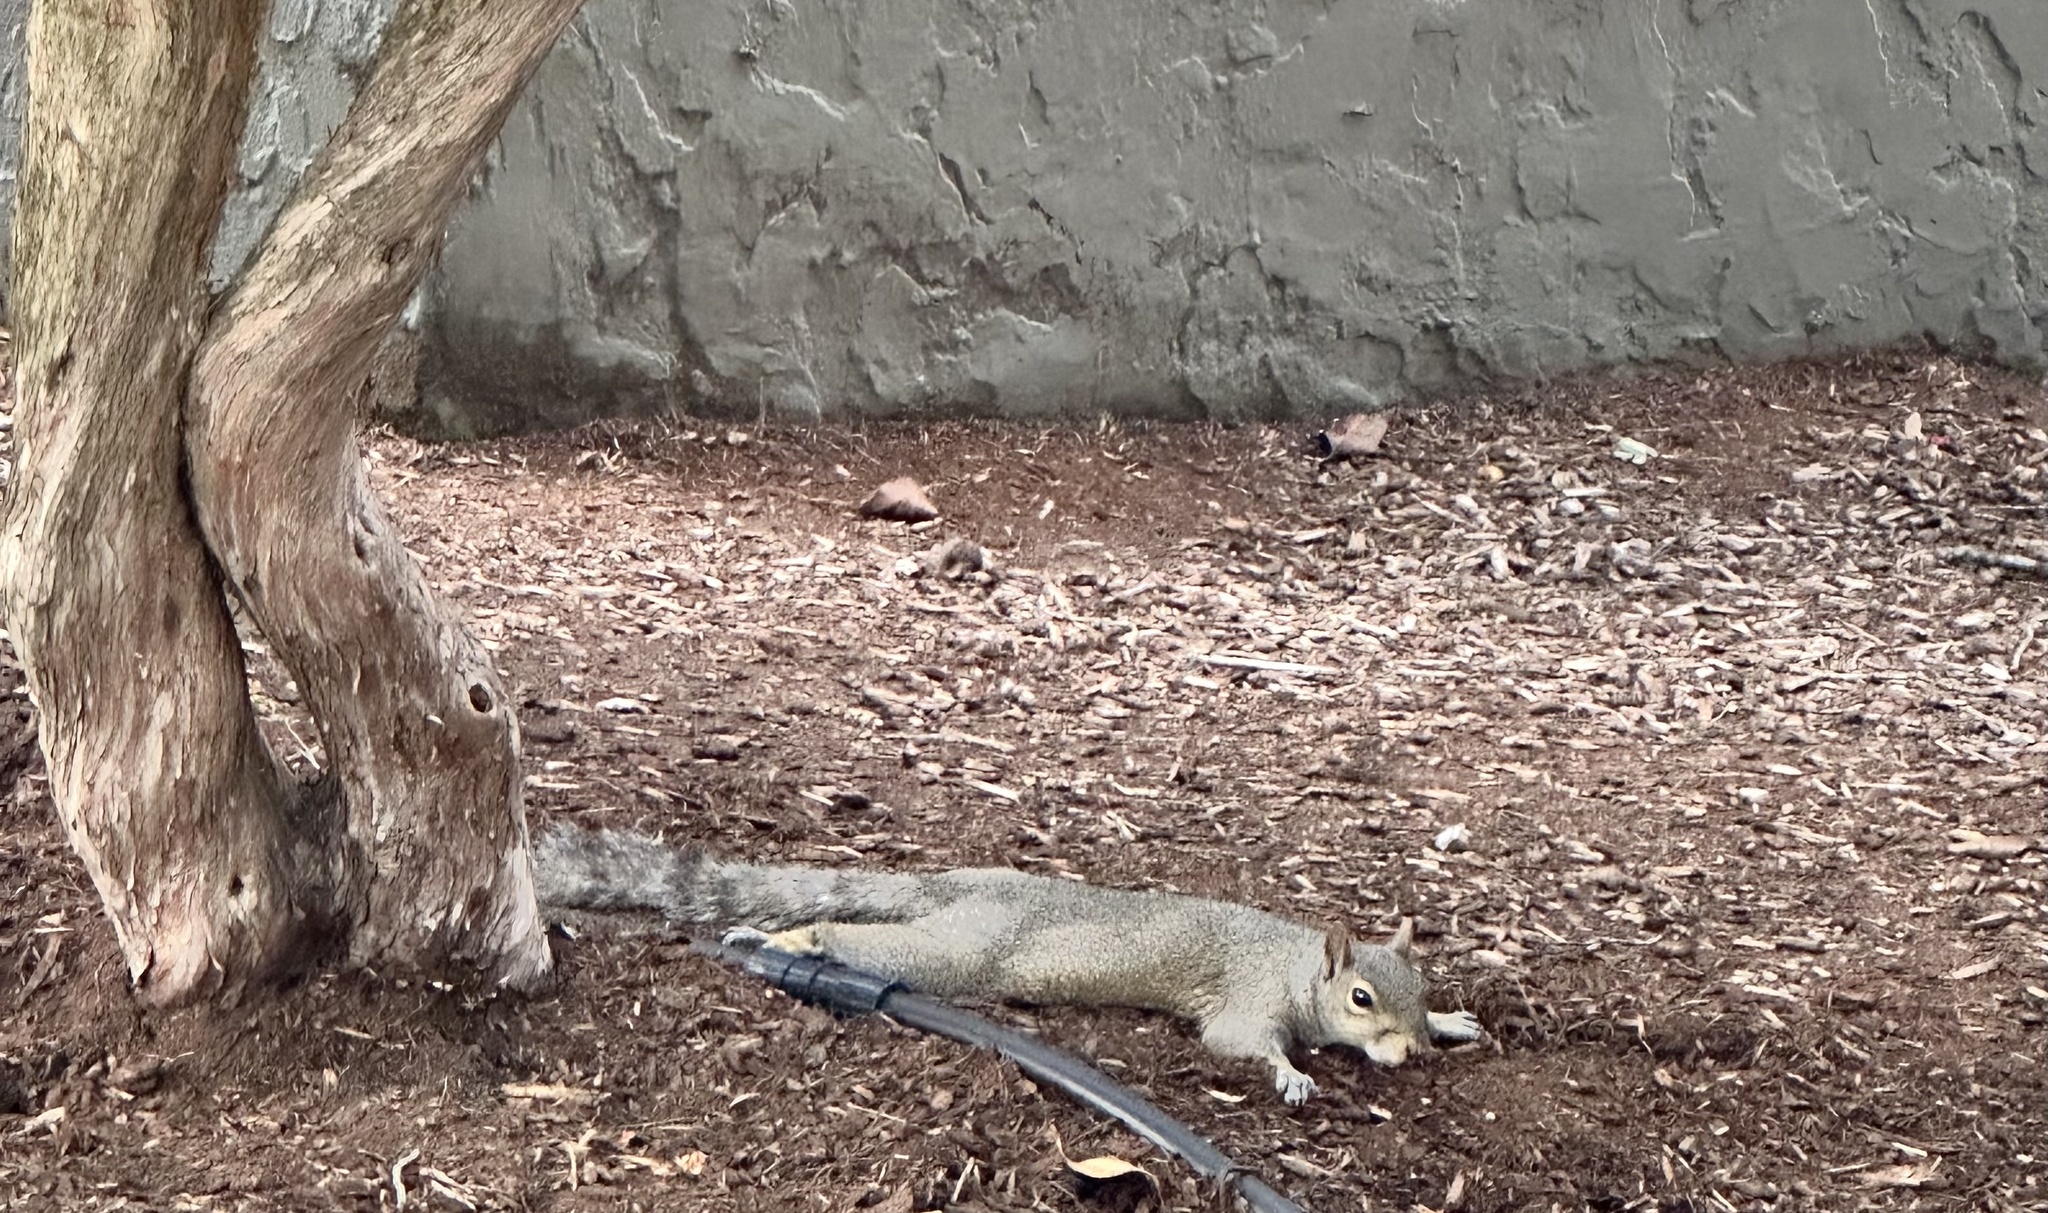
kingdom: Animalia
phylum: Chordata
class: Mammalia
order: Rodentia
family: Sciuridae
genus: Sciurus
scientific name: Sciurus carolinensis
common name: Eastern gray squirrel
